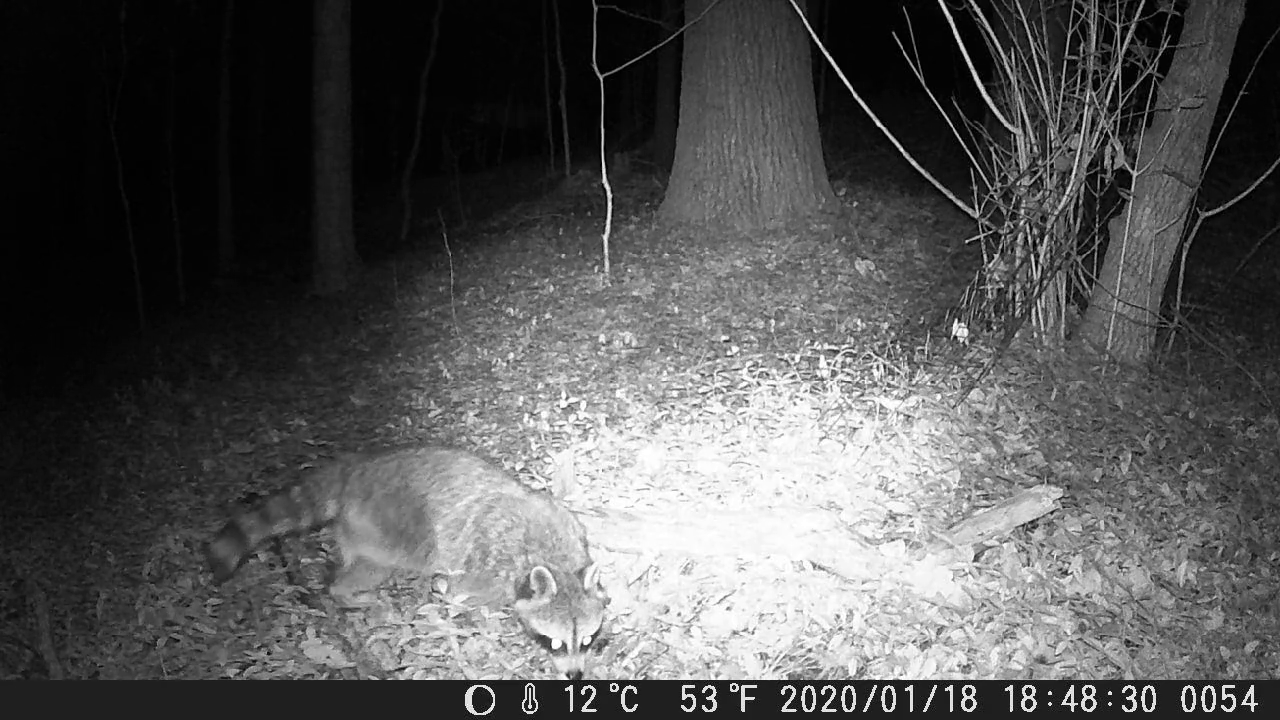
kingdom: Animalia
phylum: Chordata
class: Mammalia
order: Carnivora
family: Procyonidae
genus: Procyon
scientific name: Procyon lotor
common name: Raccoon
